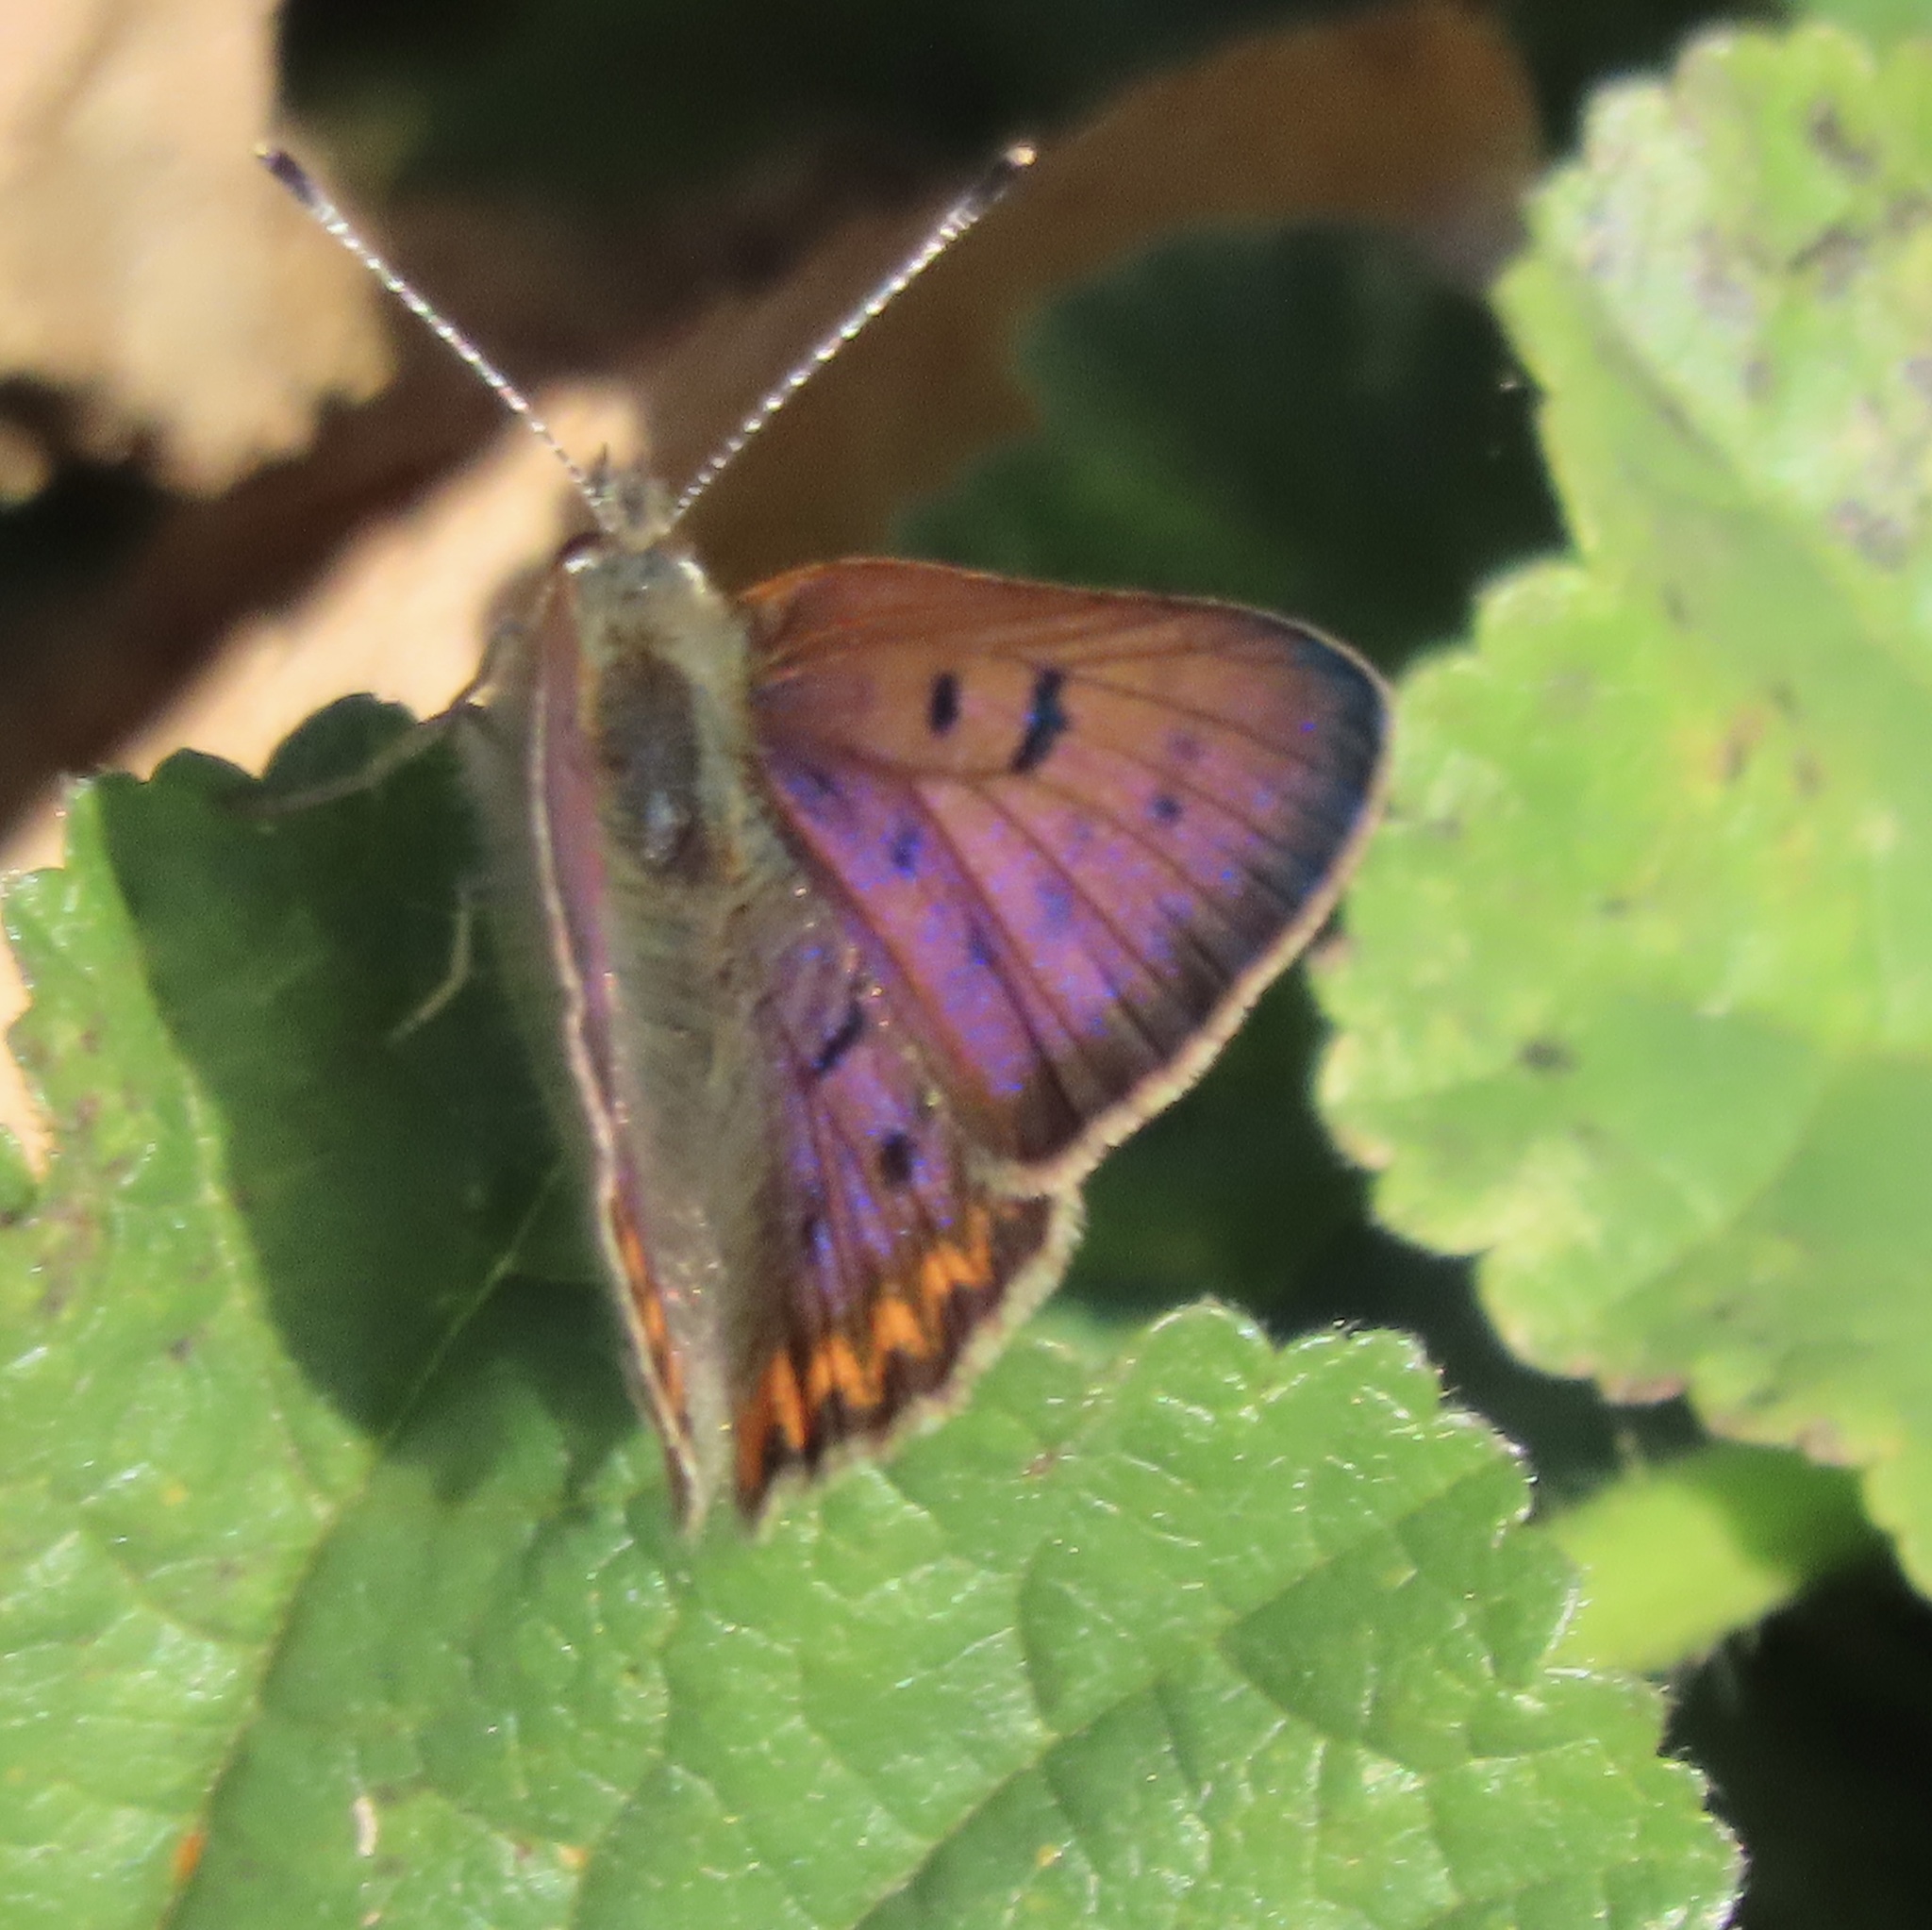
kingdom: Animalia
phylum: Arthropoda
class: Insecta
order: Lepidoptera
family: Lycaenidae
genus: Tharsalea
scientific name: Tharsalea helloides
